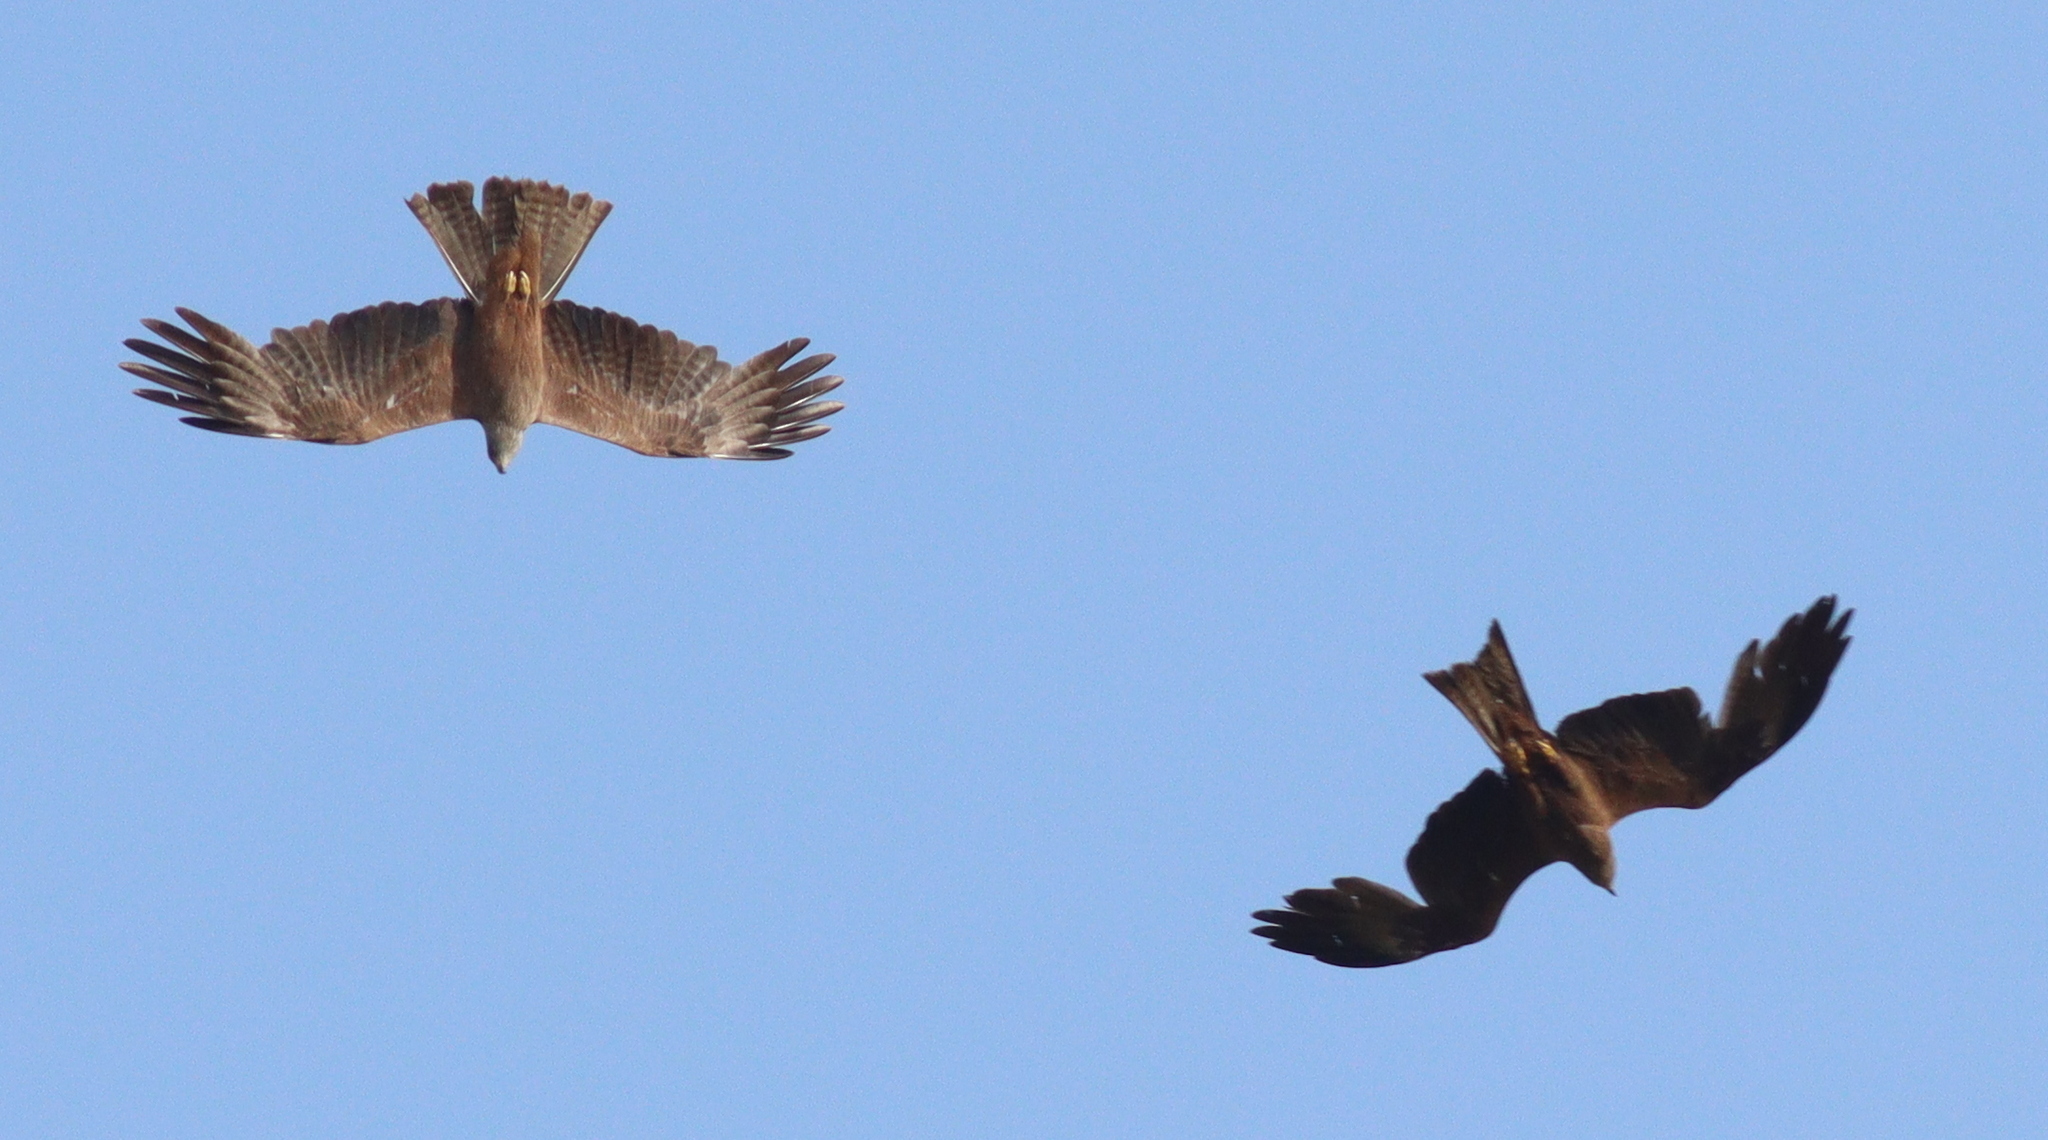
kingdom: Animalia
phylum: Chordata
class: Aves
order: Accipitriformes
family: Accipitridae
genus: Milvus
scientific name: Milvus migrans
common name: Black kite
